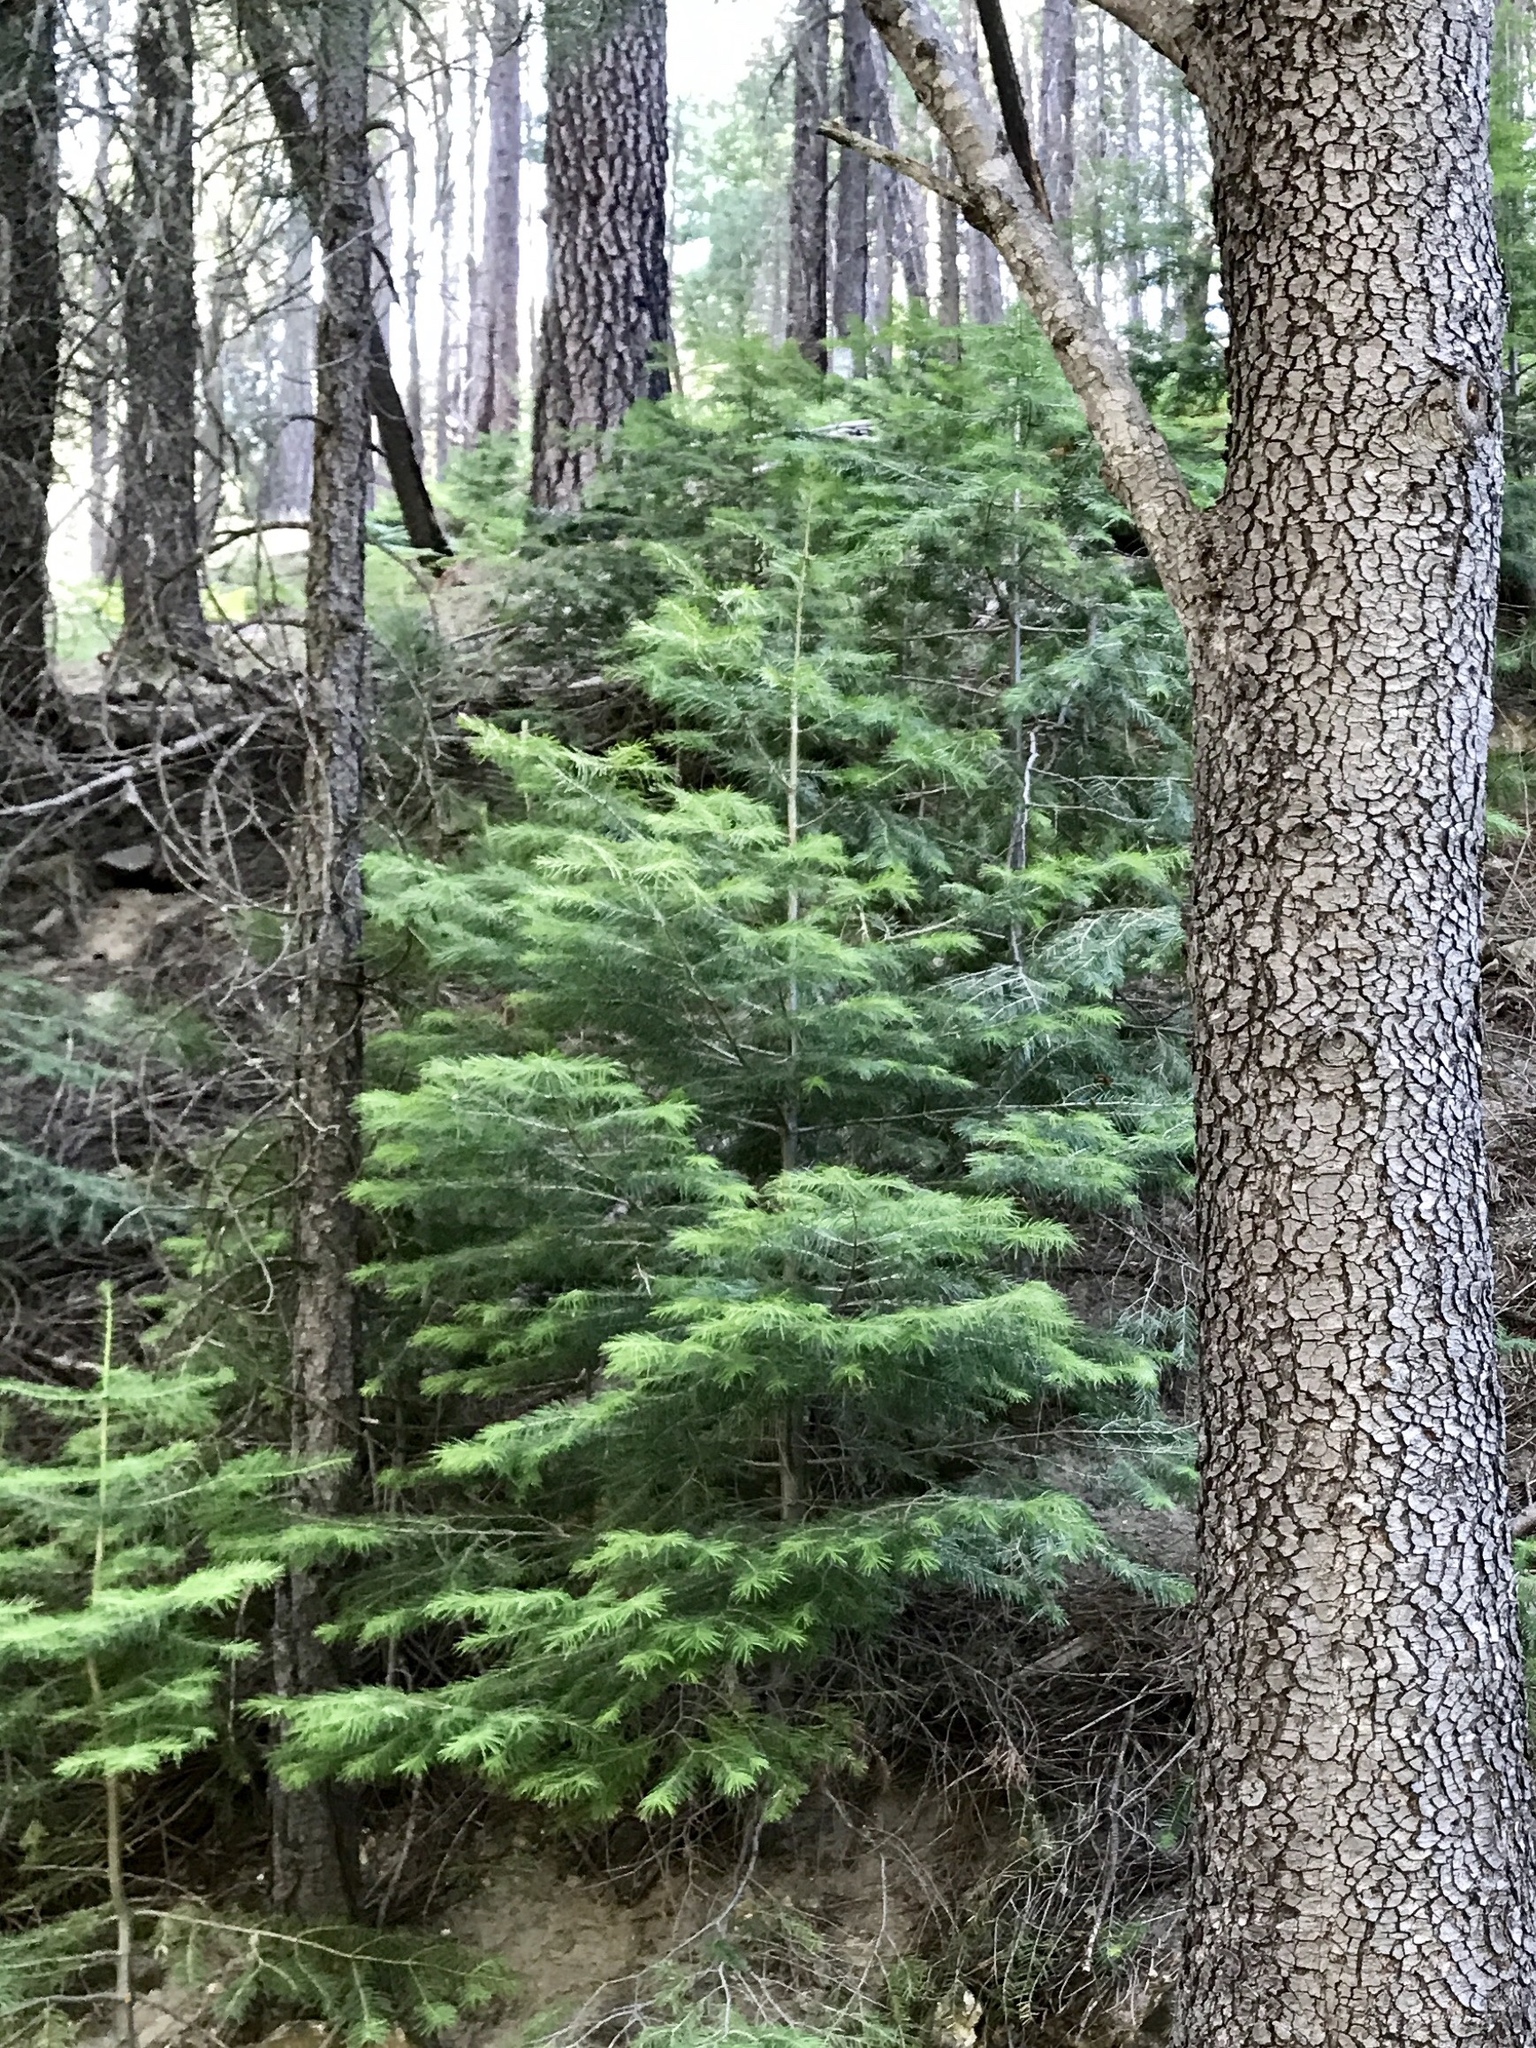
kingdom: Plantae
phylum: Tracheophyta
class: Pinopsida
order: Pinales
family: Pinaceae
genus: Abies
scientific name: Abies concolor
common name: Colorado fir
